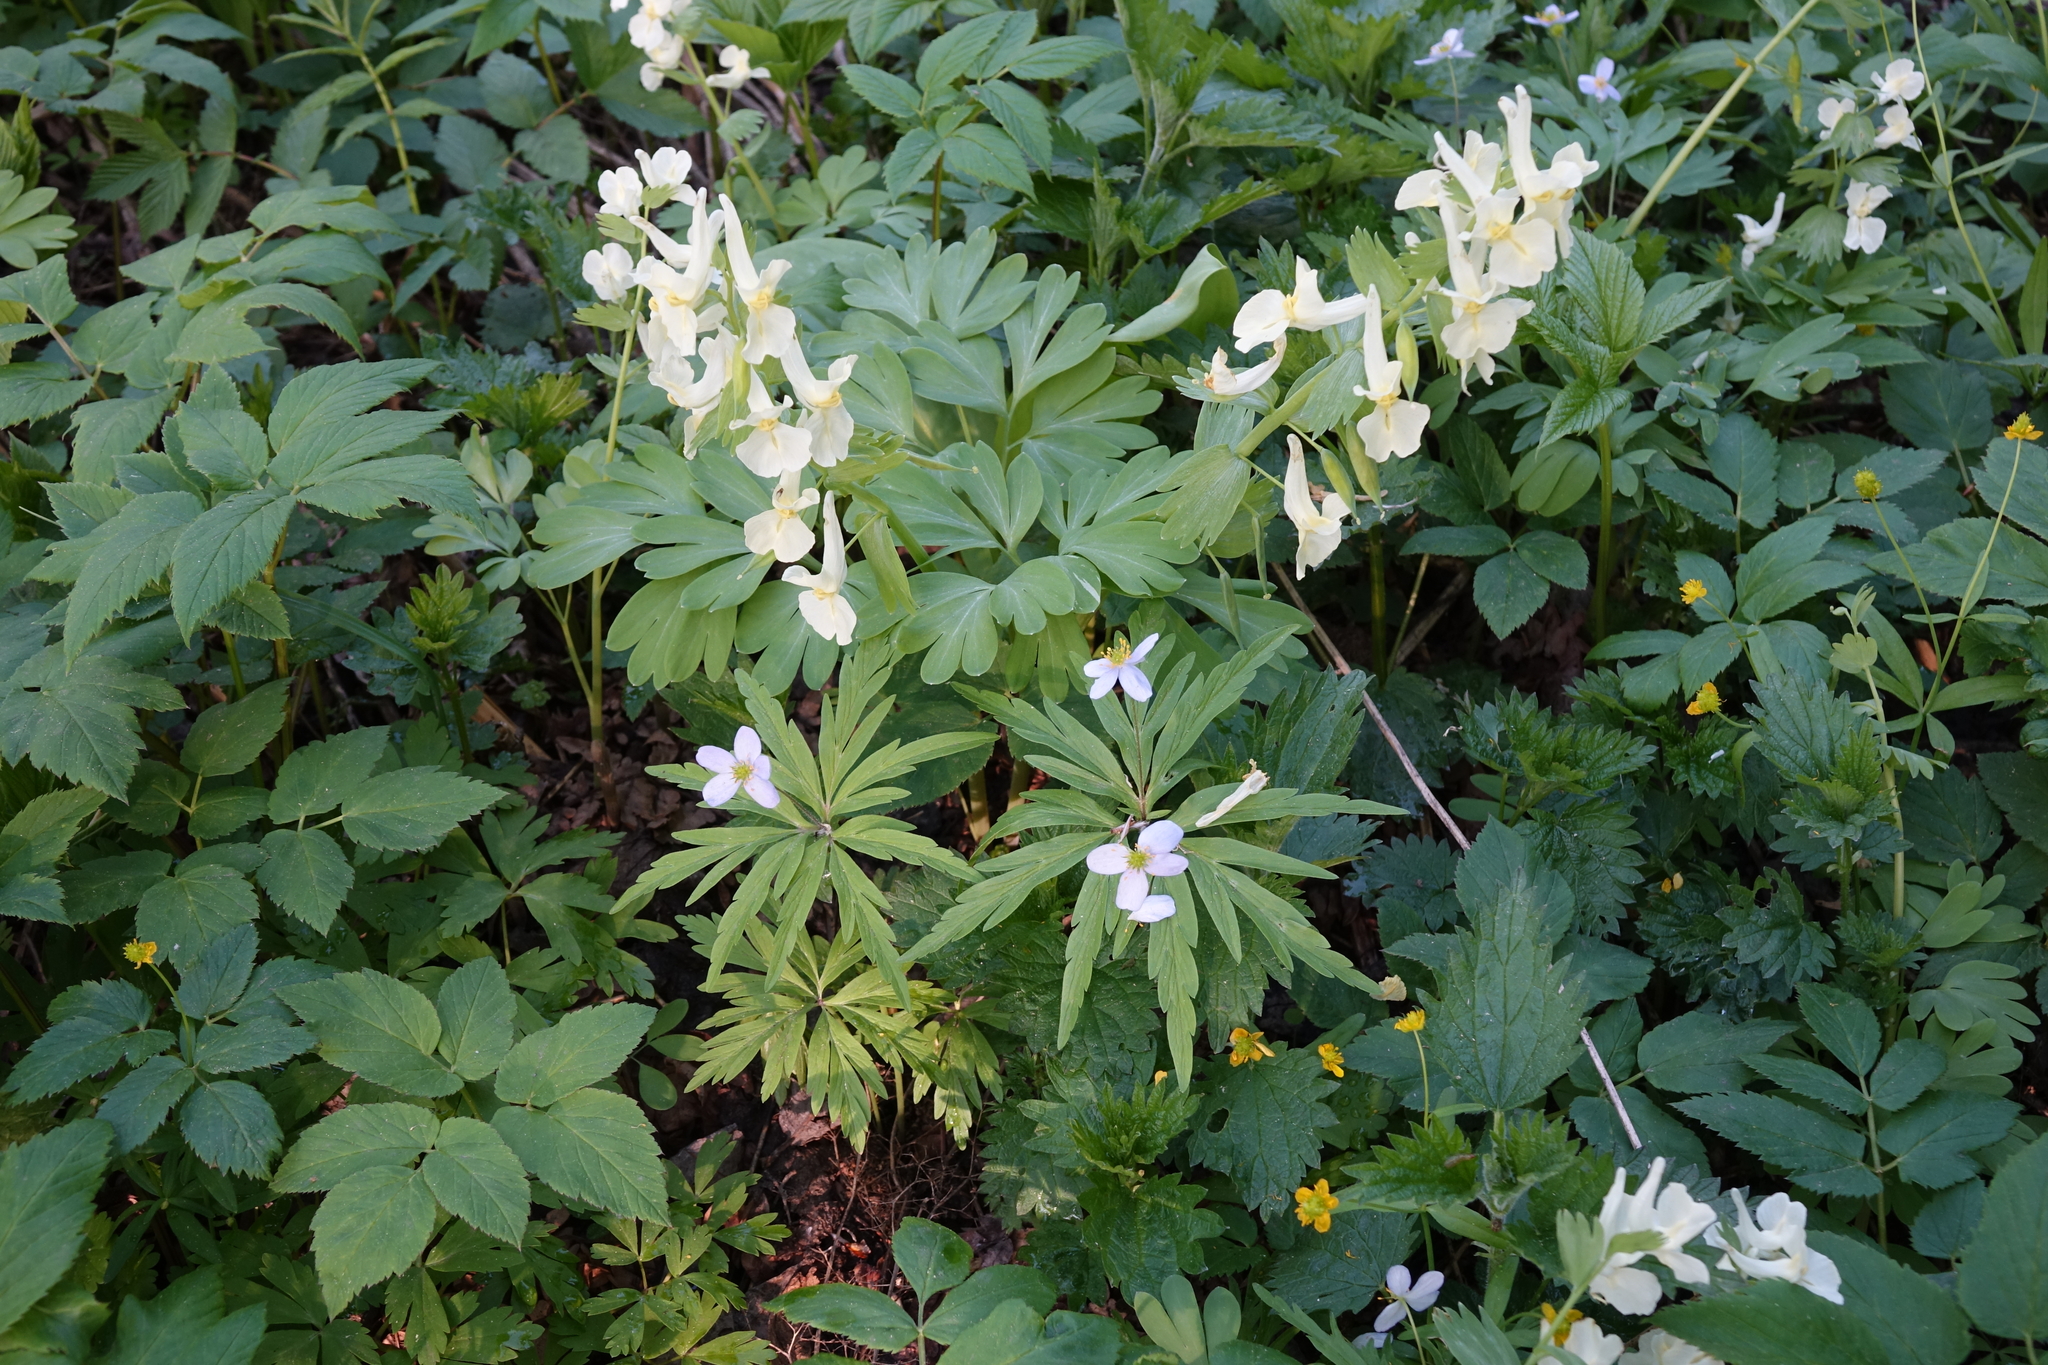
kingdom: Plantae
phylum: Tracheophyta
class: Magnoliopsida
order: Ranunculales
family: Papaveraceae
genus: Corydalis
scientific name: Corydalis bracteata
